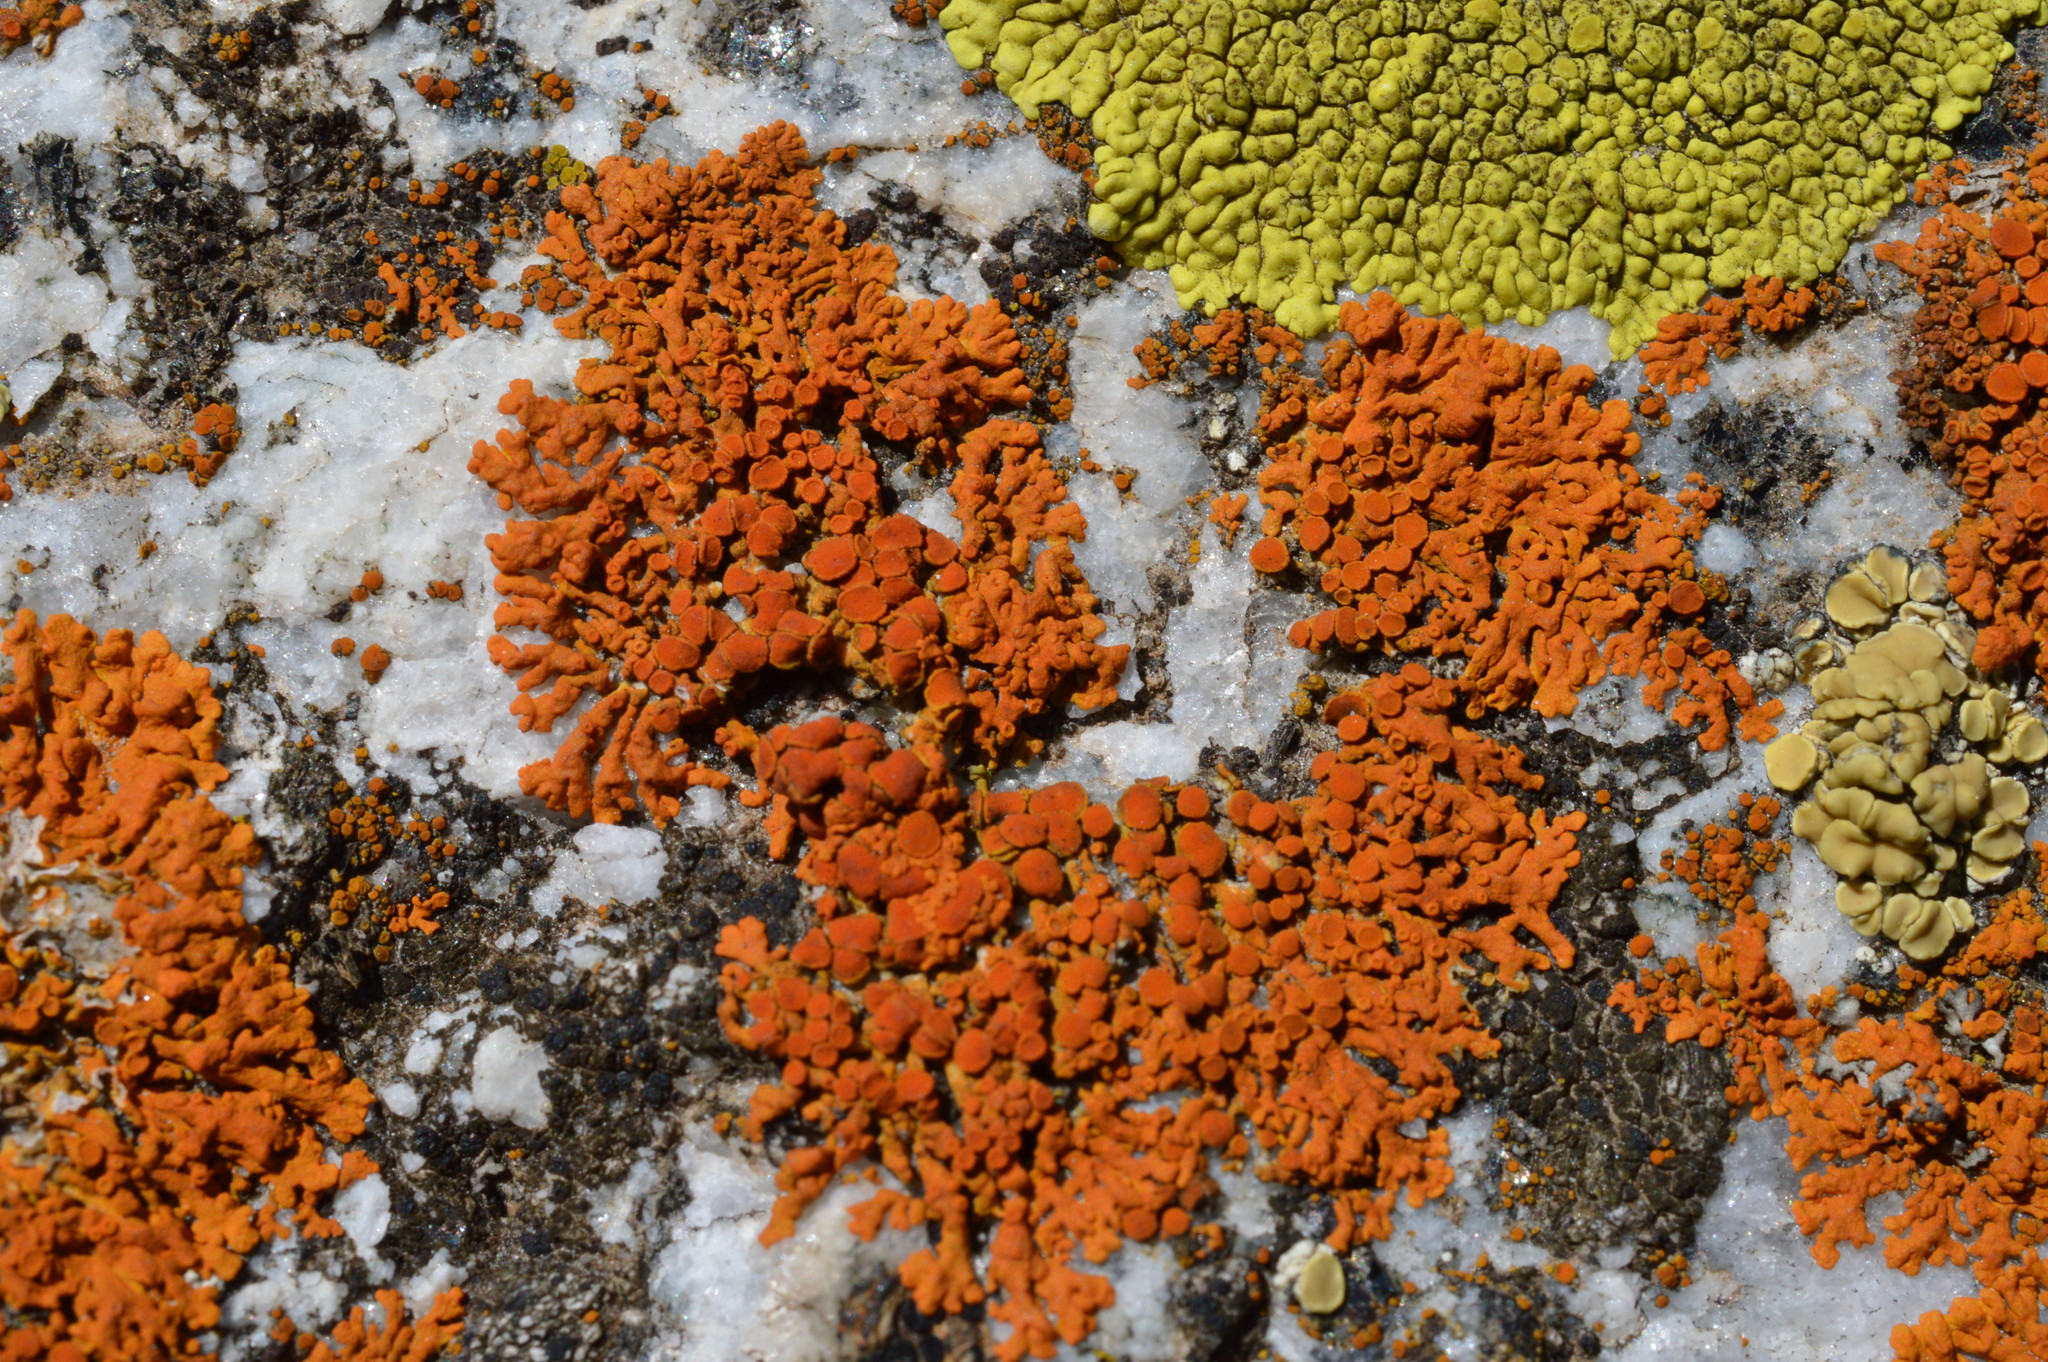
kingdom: Fungi
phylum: Ascomycota
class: Lecanoromycetes
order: Teloschistales
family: Teloschistaceae
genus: Xanthoria
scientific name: Xanthoria elegans
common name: Elegant sunburst lichen
